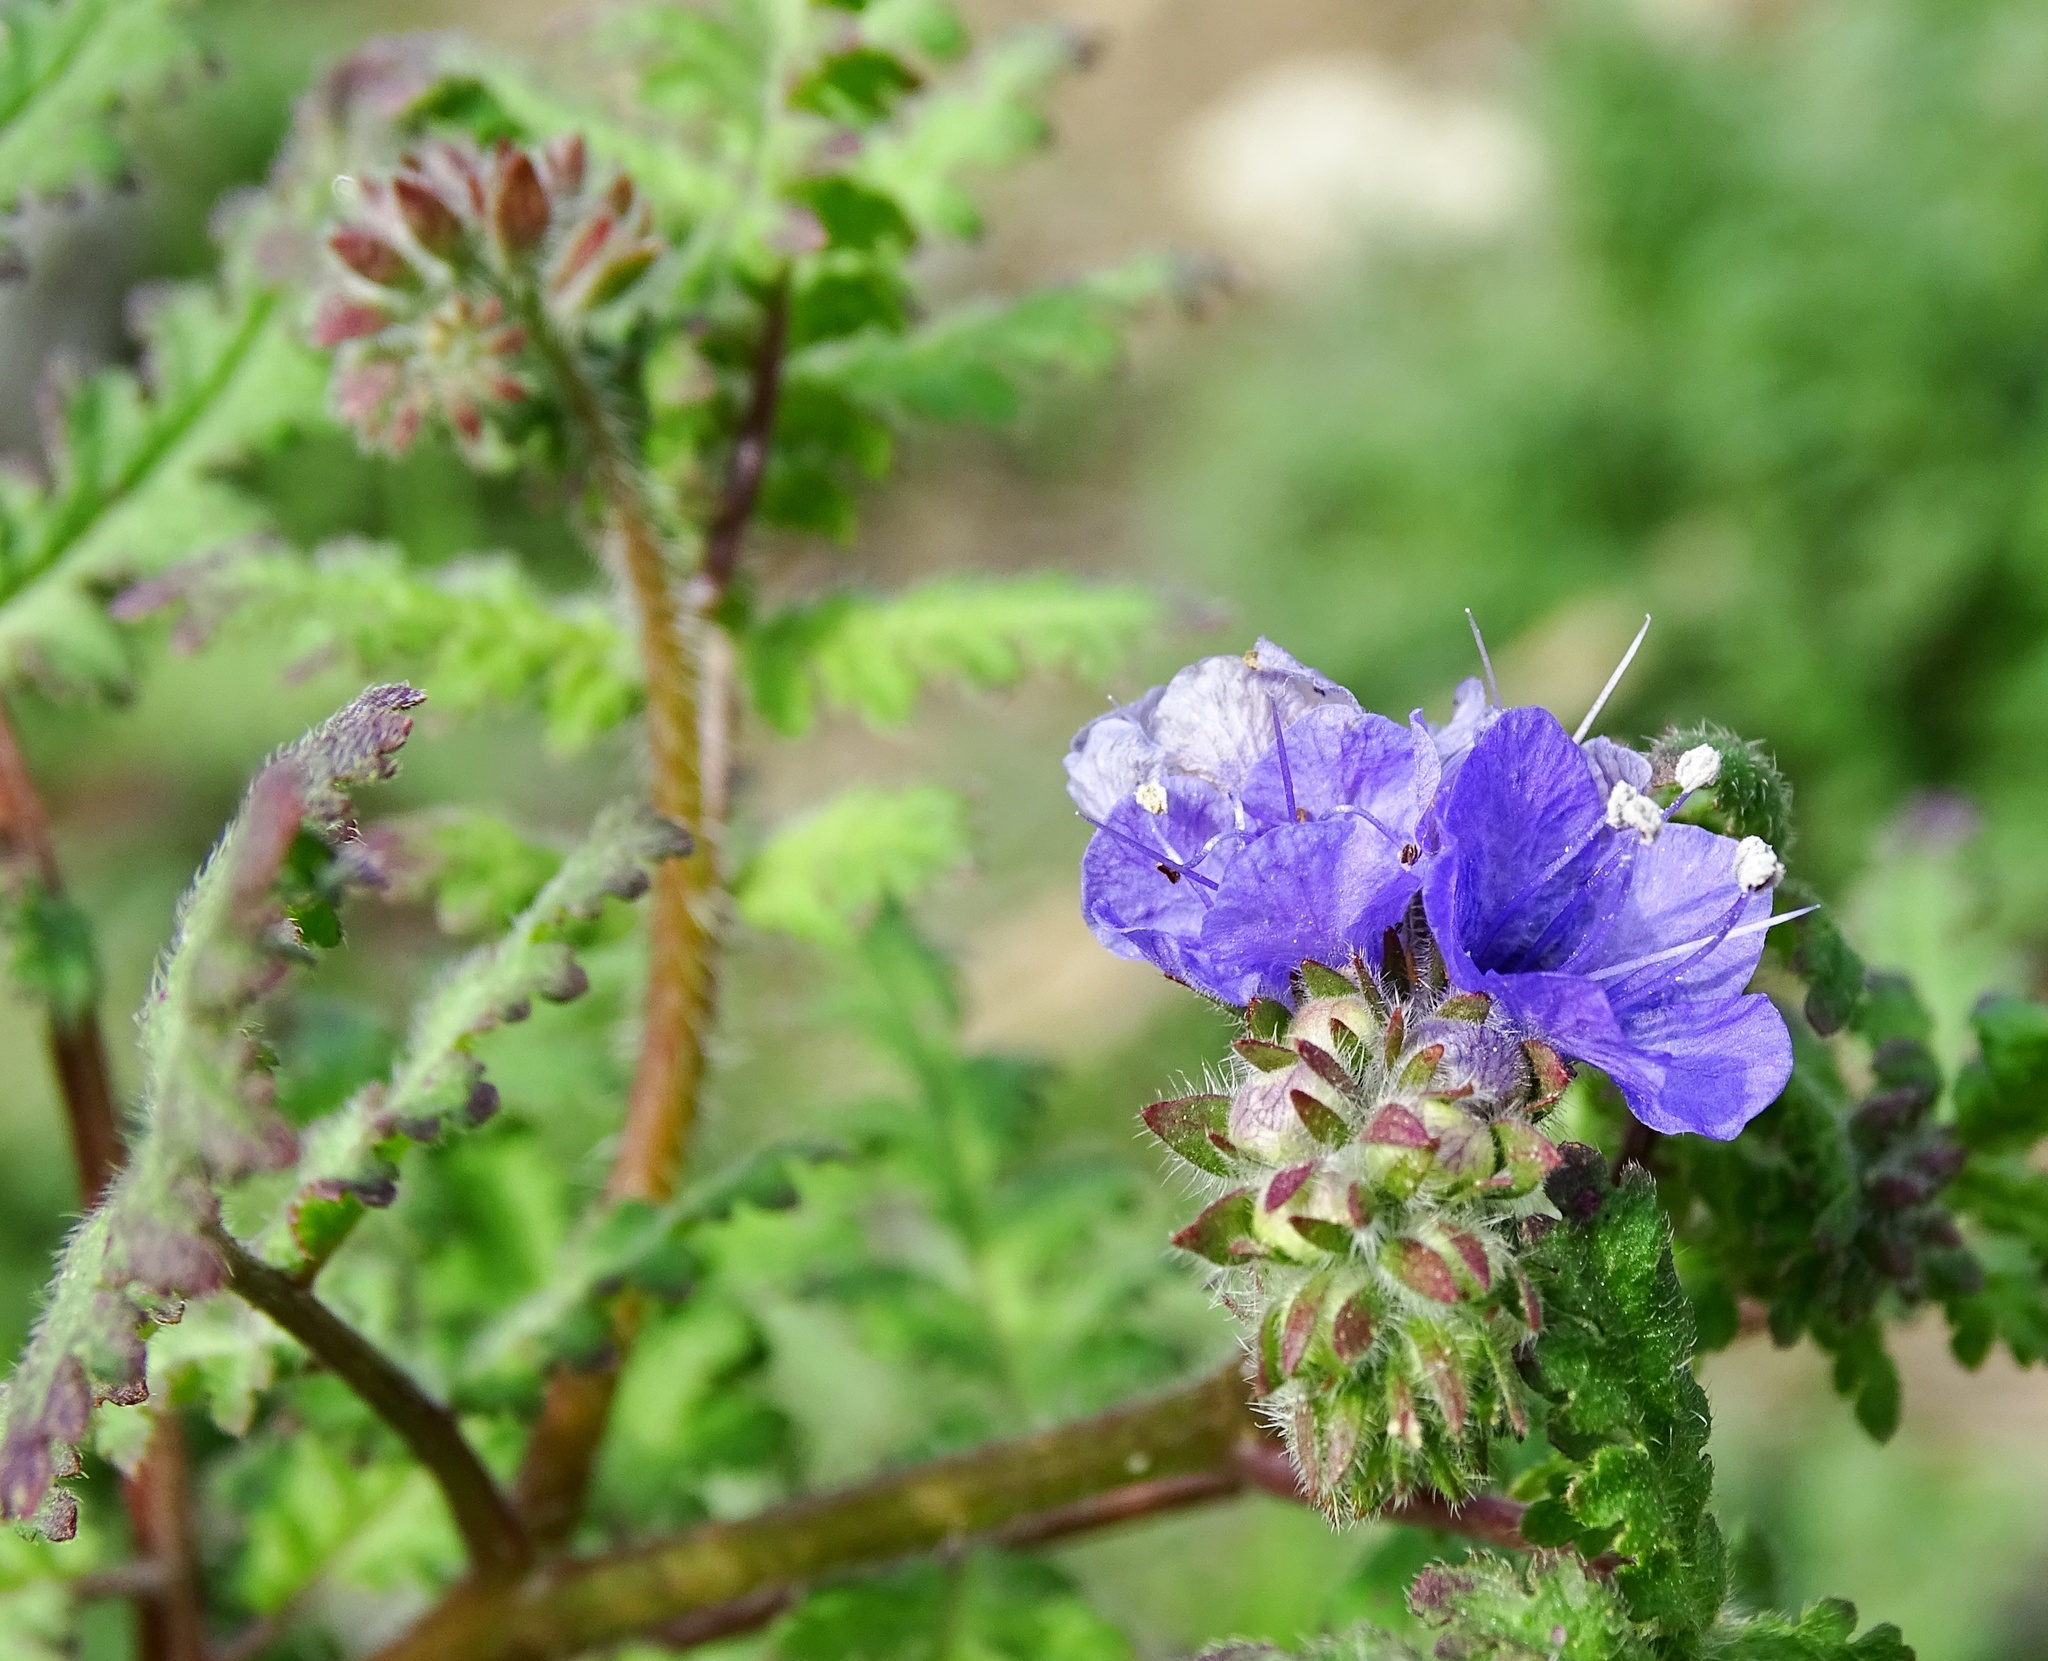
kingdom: Plantae
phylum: Tracheophyta
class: Magnoliopsida
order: Boraginales
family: Hydrophyllaceae
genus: Phacelia
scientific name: Phacelia distans
